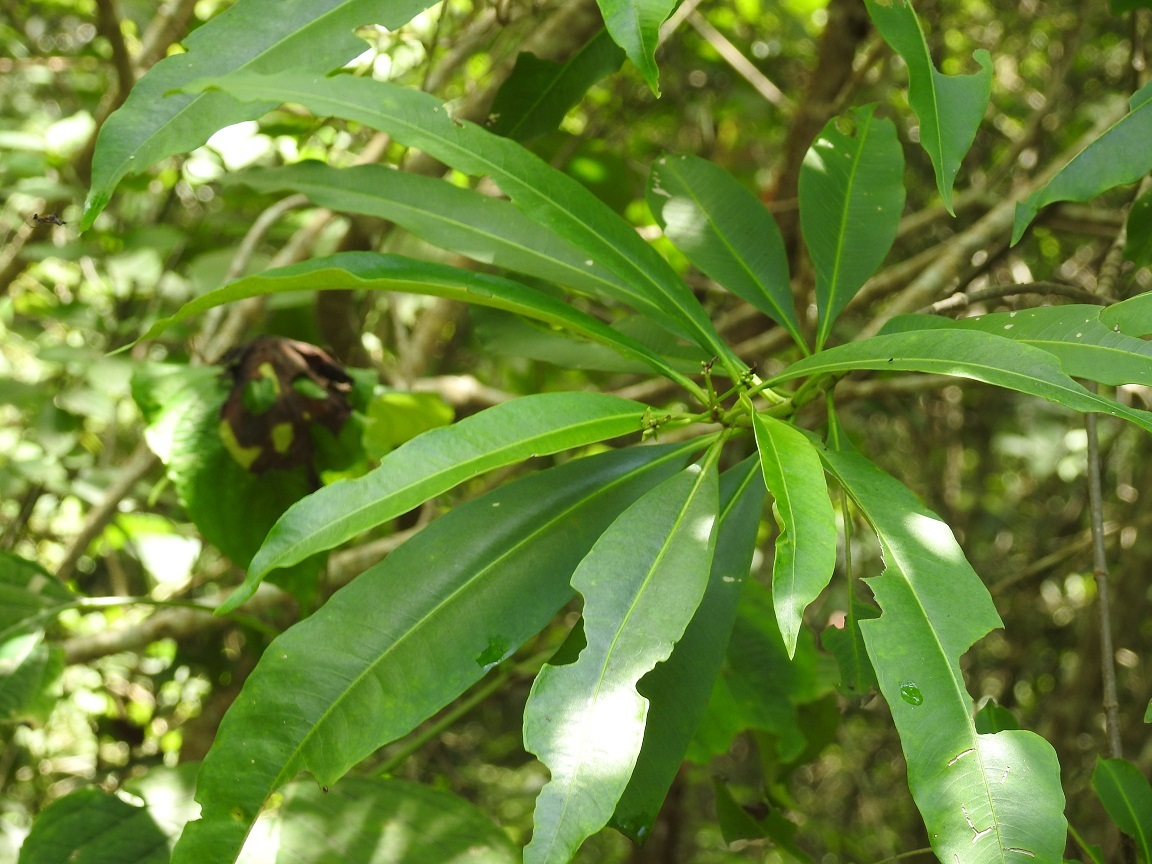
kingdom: Plantae
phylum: Tracheophyta
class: Magnoliopsida
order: Gentianales
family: Apocynaceae
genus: Tonduzia
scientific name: Tonduzia longifolia
